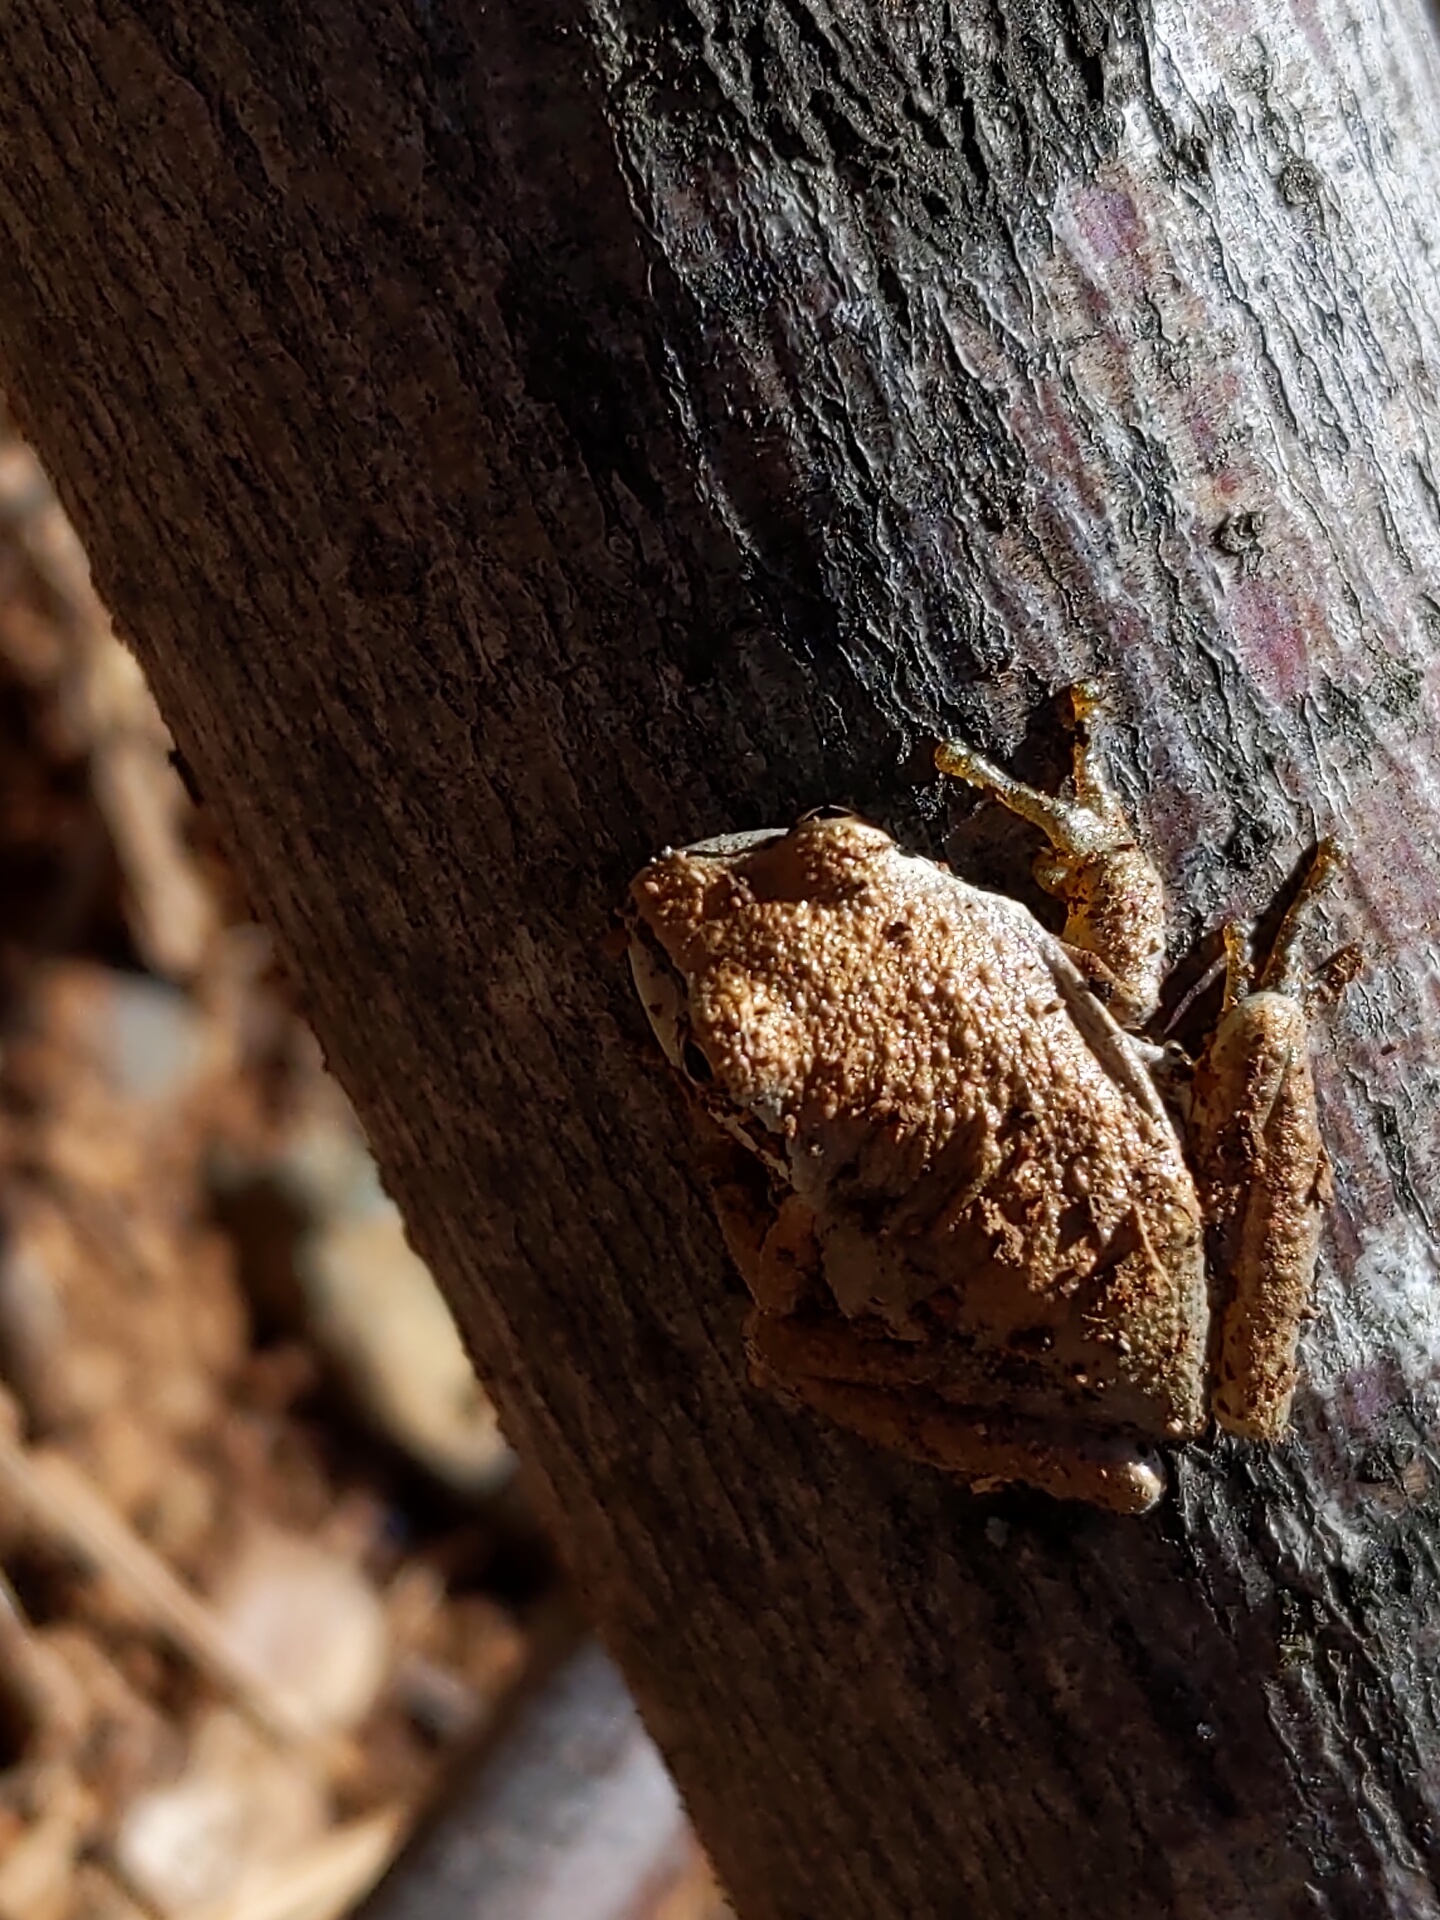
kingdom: Animalia
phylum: Chordata
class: Amphibia
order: Anura
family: Hylidae
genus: Pseudacris
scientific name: Pseudacris regilla
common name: Pacific chorus frog
